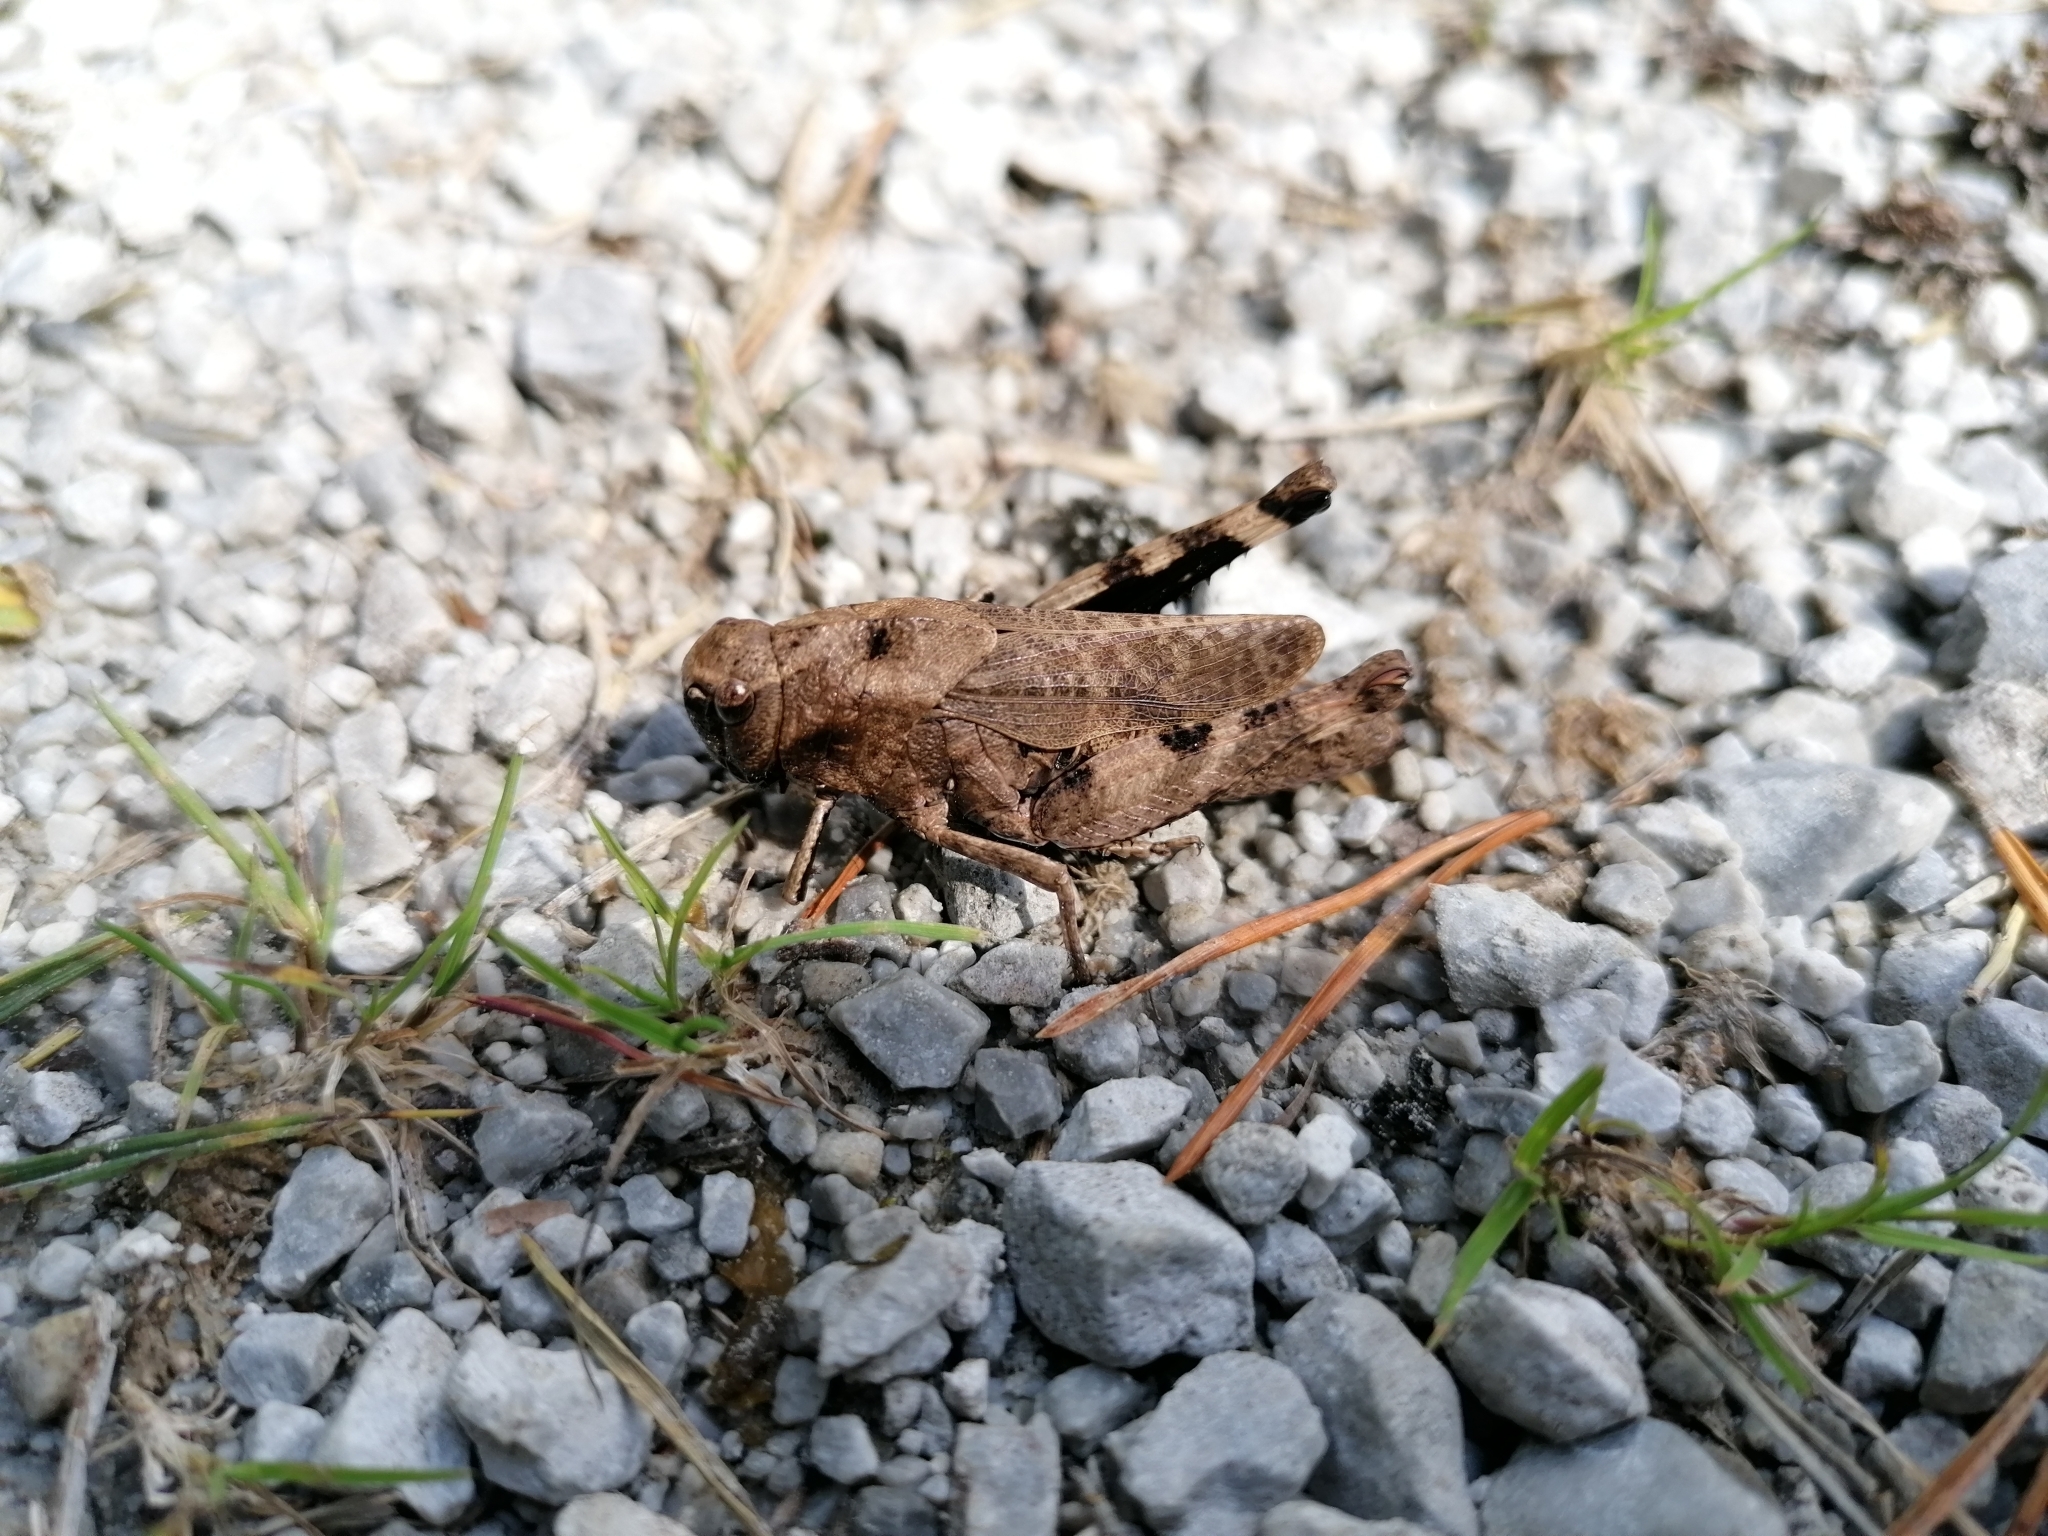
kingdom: Animalia
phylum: Arthropoda
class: Insecta
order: Orthoptera
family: Acrididae
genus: Psophus
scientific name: Psophus stridulus
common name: Rattle grasshopper
